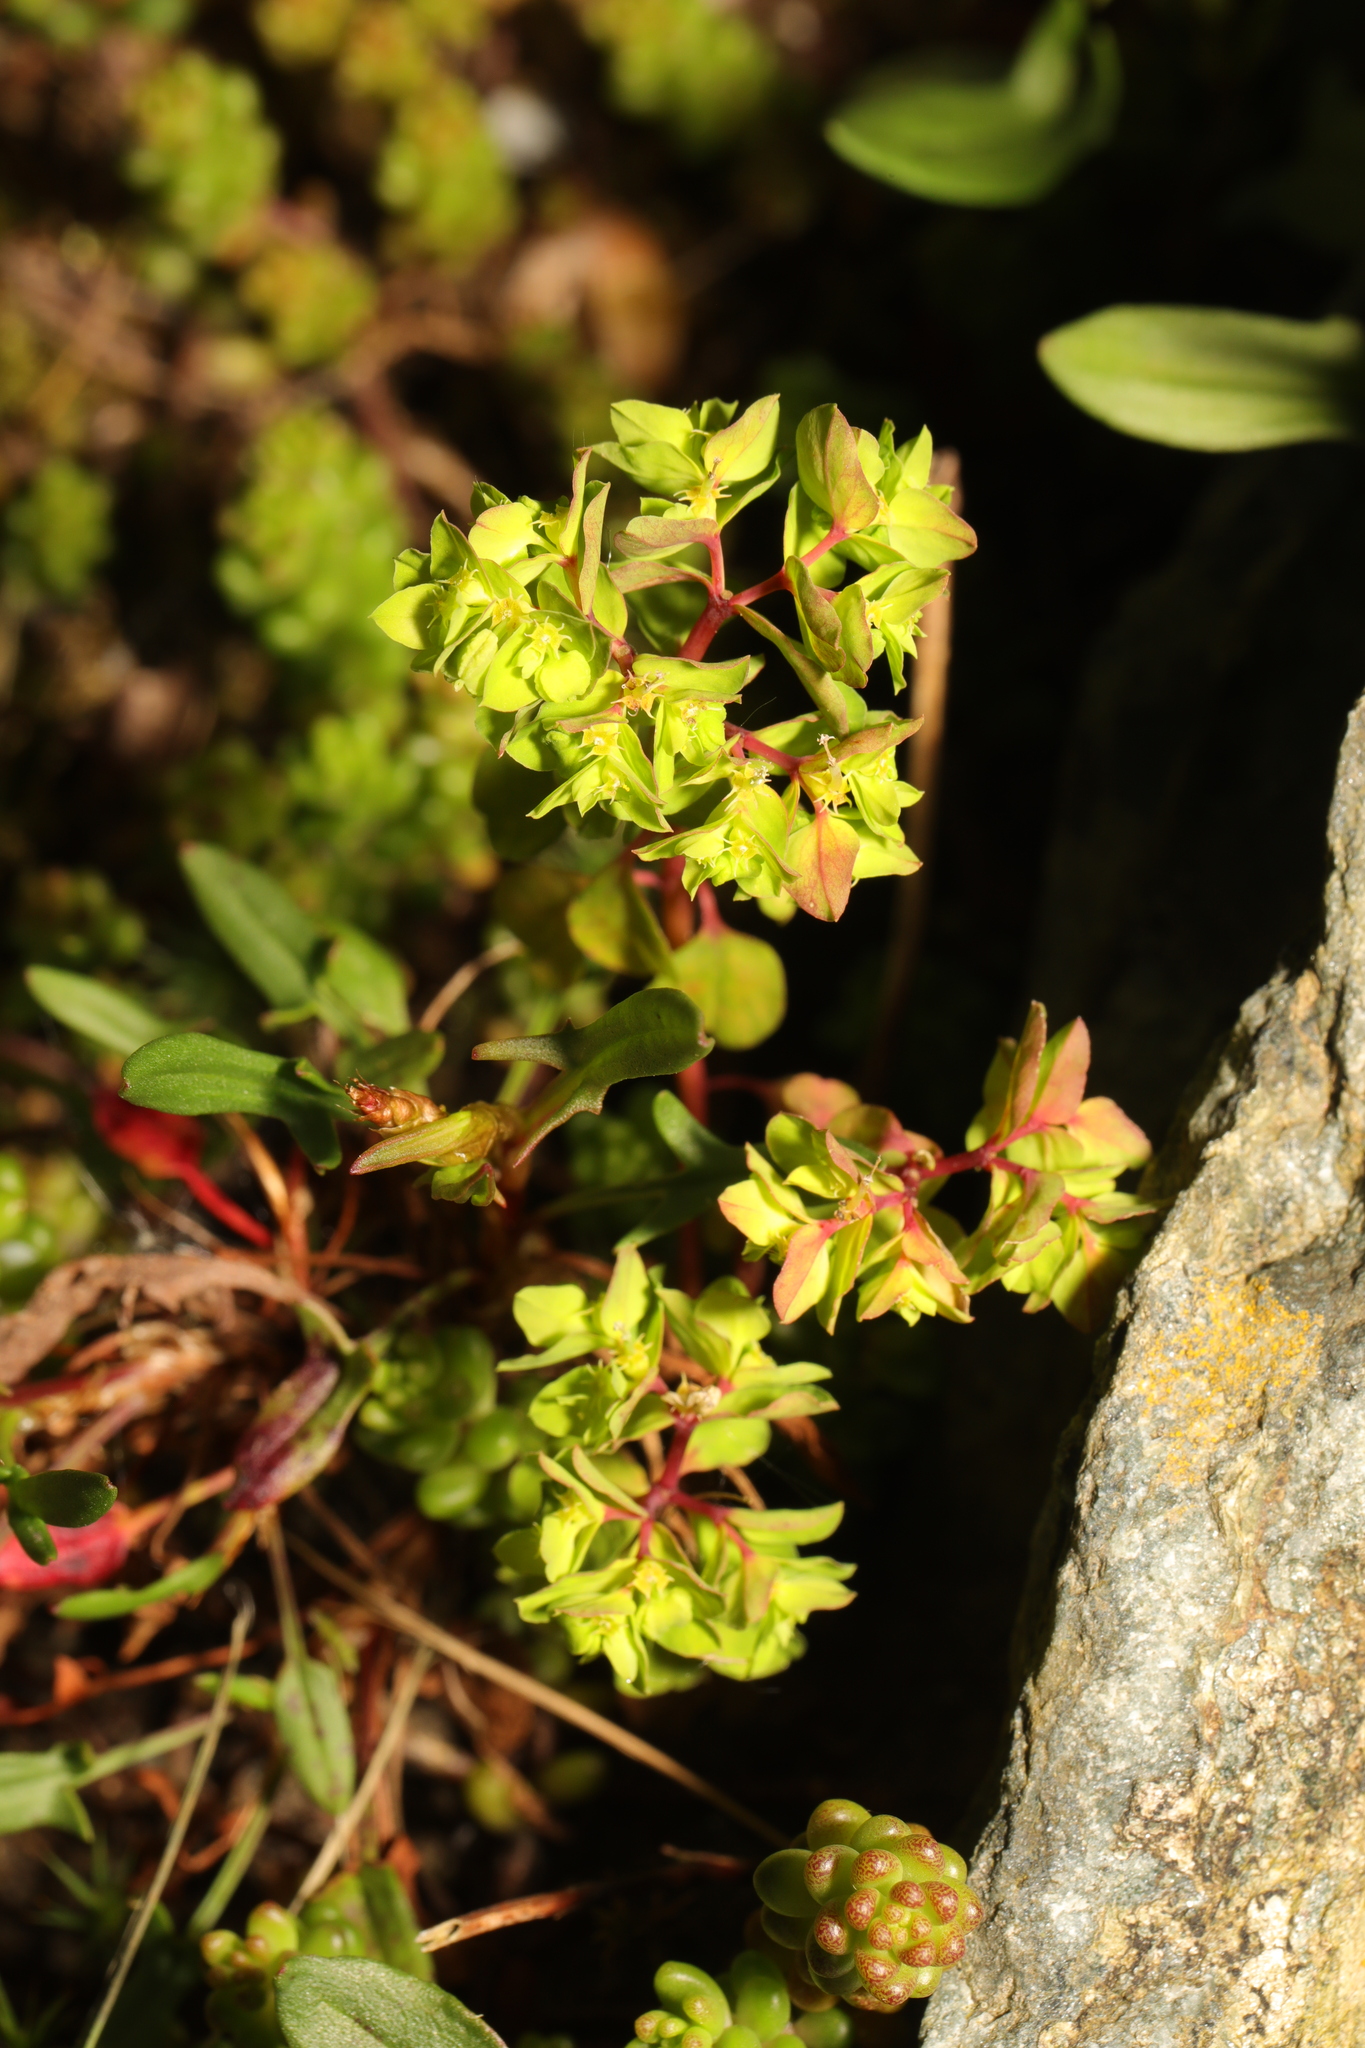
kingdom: Plantae
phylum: Tracheophyta
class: Magnoliopsida
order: Malpighiales
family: Euphorbiaceae
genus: Euphorbia
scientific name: Euphorbia peplus
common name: Petty spurge
